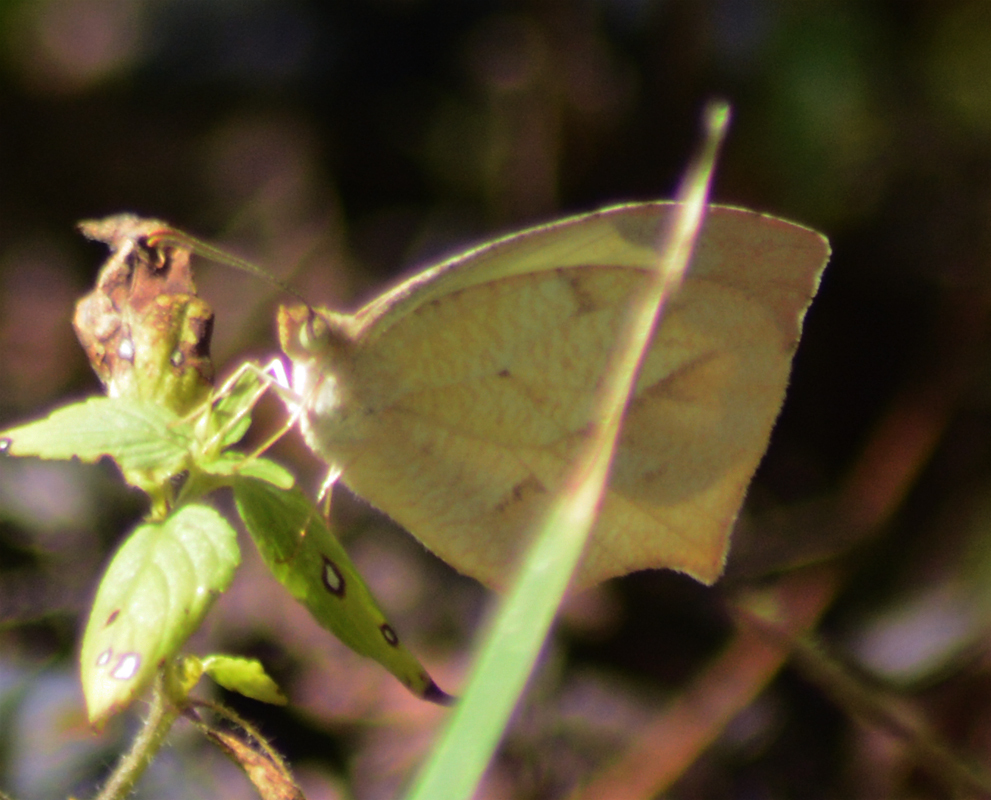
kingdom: Animalia
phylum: Arthropoda
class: Insecta
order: Lepidoptera
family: Pieridae
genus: Abaeis
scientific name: Abaeis mexicana
